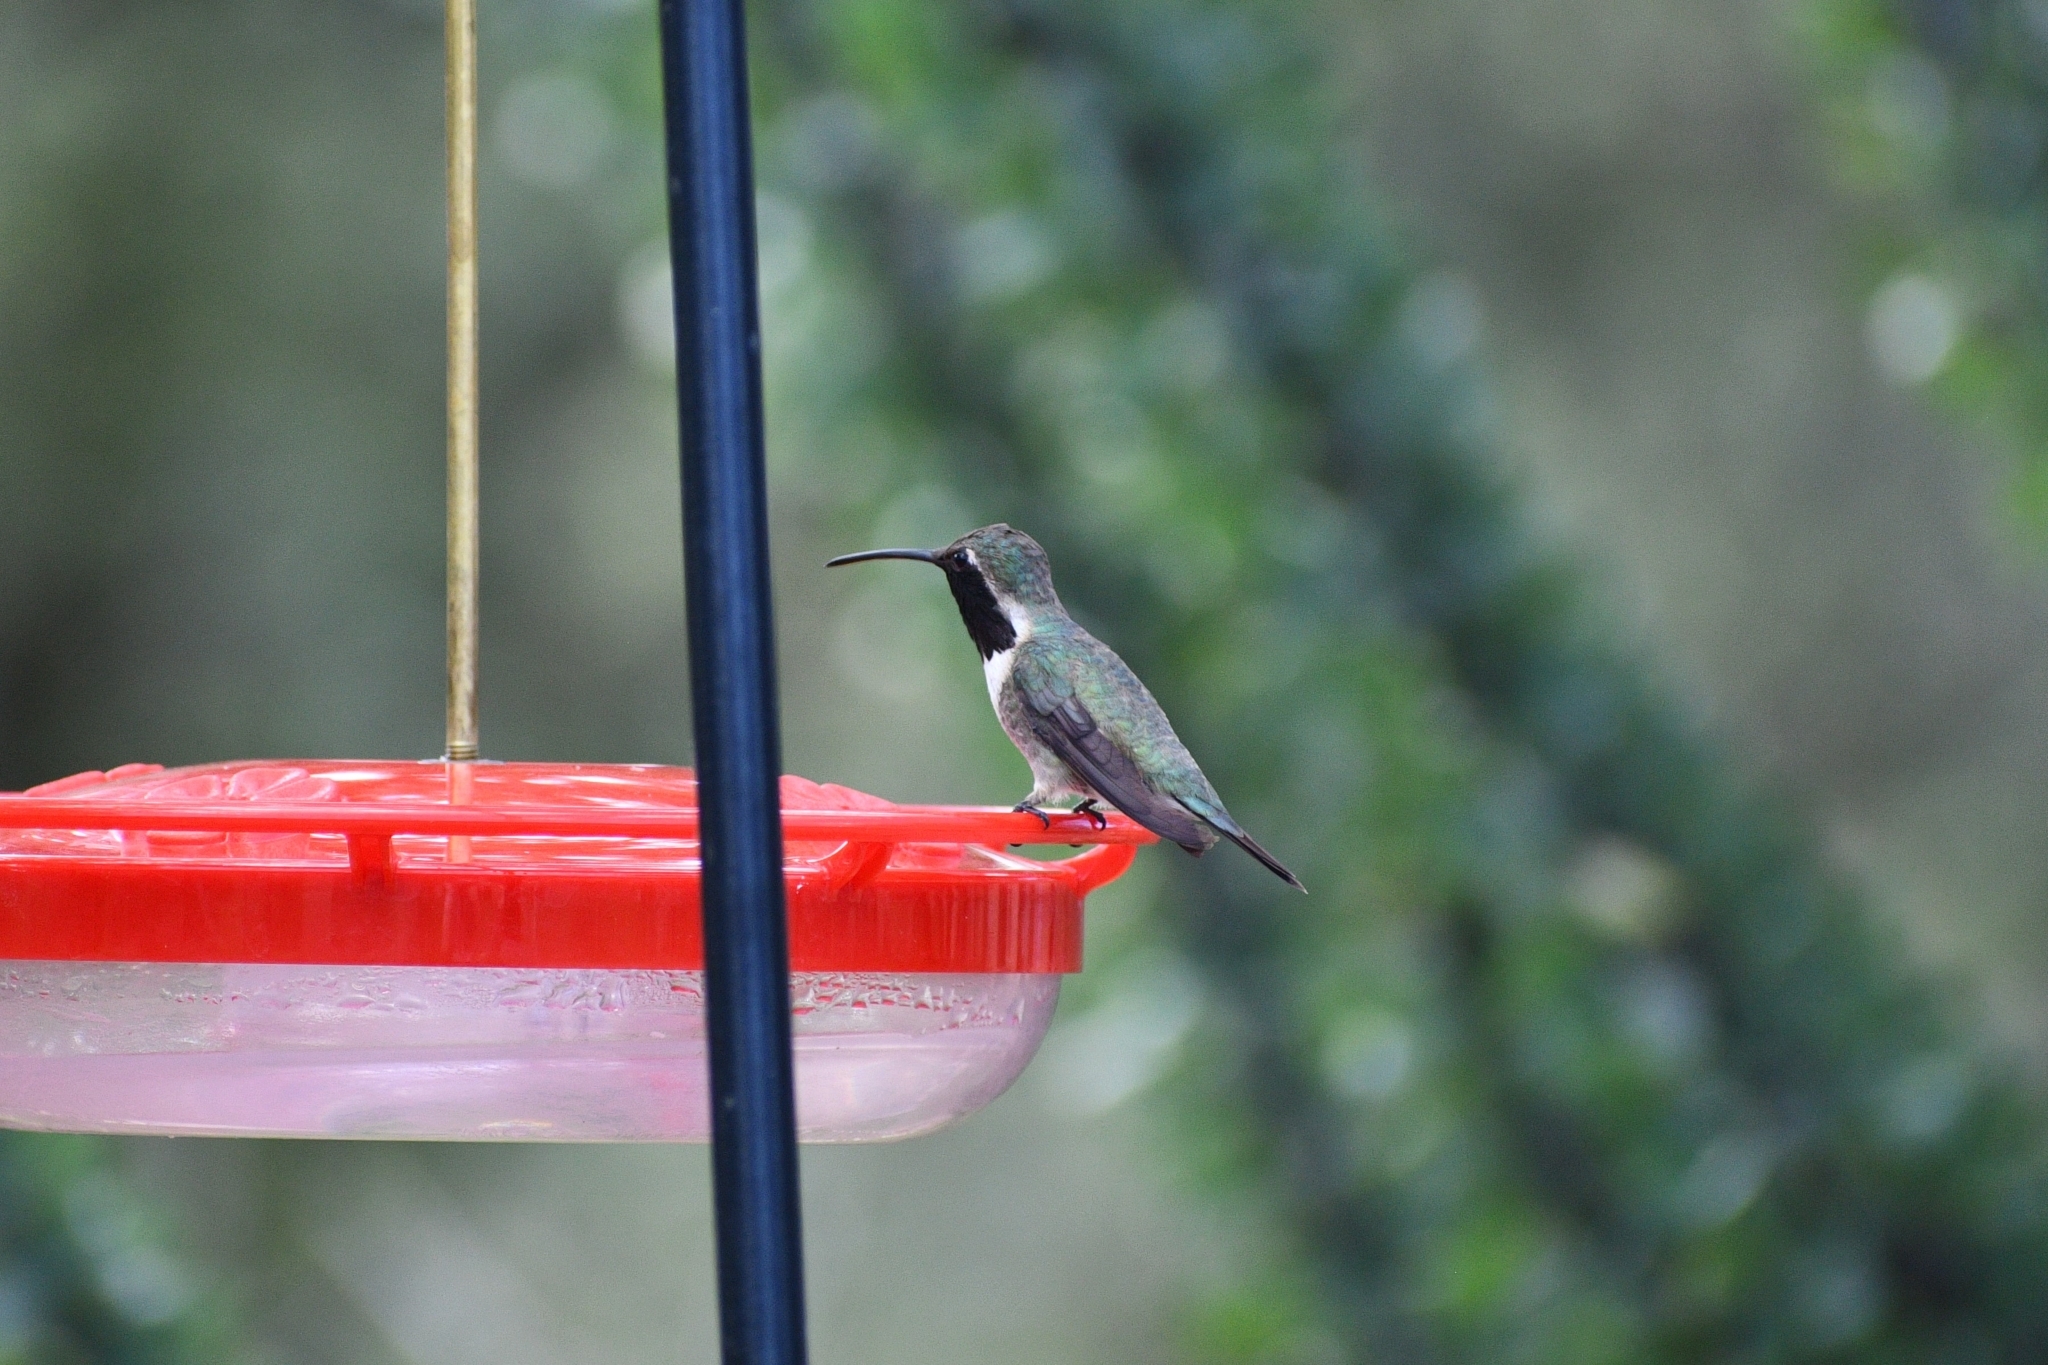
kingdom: Animalia
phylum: Chordata
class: Aves
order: Apodiformes
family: Trochilidae
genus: Calothorax
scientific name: Calothorax lucifer
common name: Lucifer sheartail
